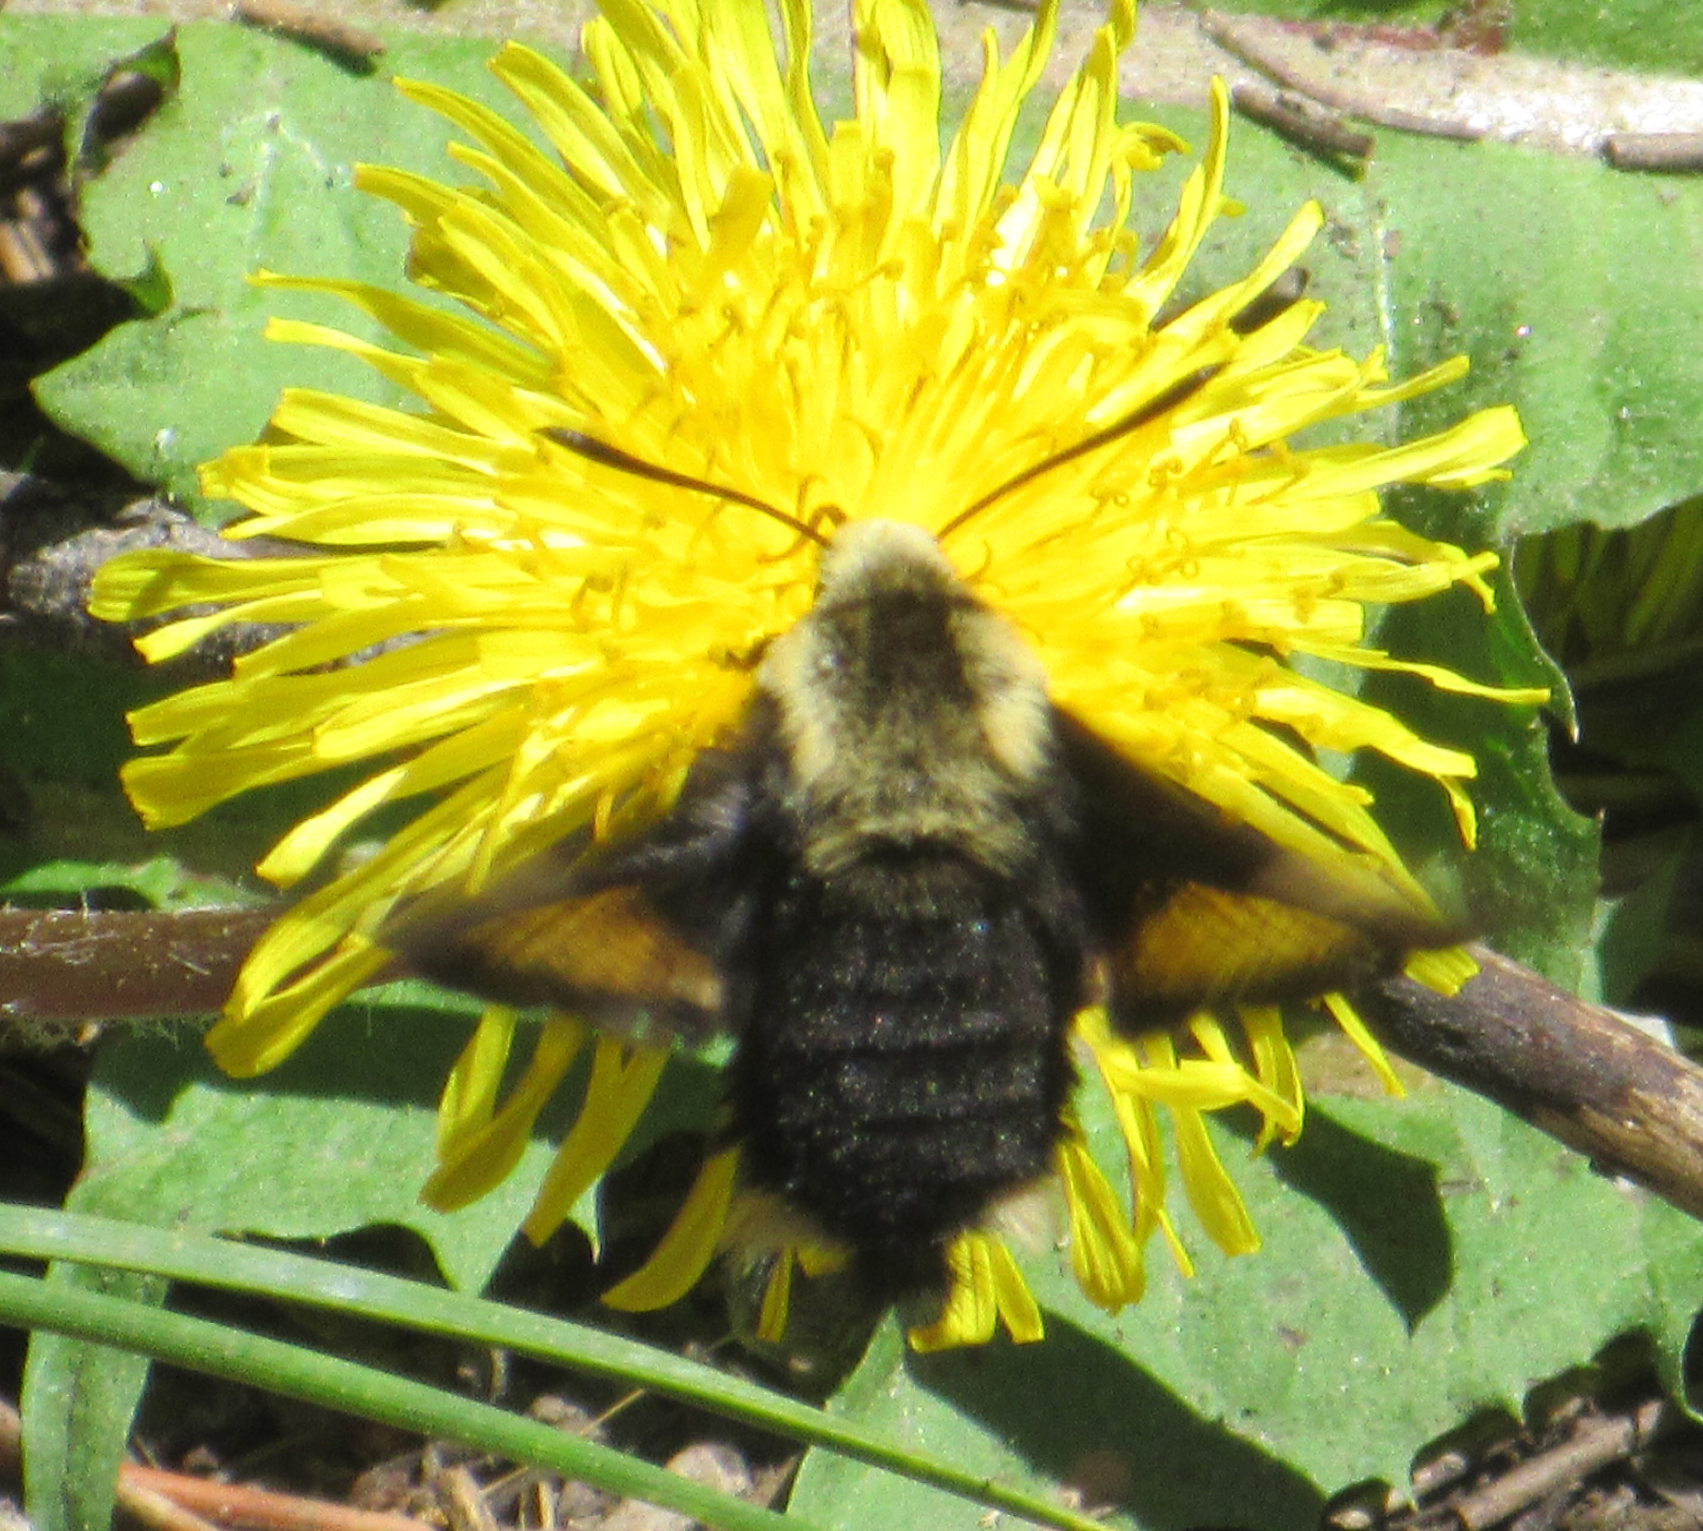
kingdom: Animalia
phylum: Arthropoda
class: Insecta
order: Lepidoptera
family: Sphingidae
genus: Proserpinus
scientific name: Proserpinus flavofasciata
